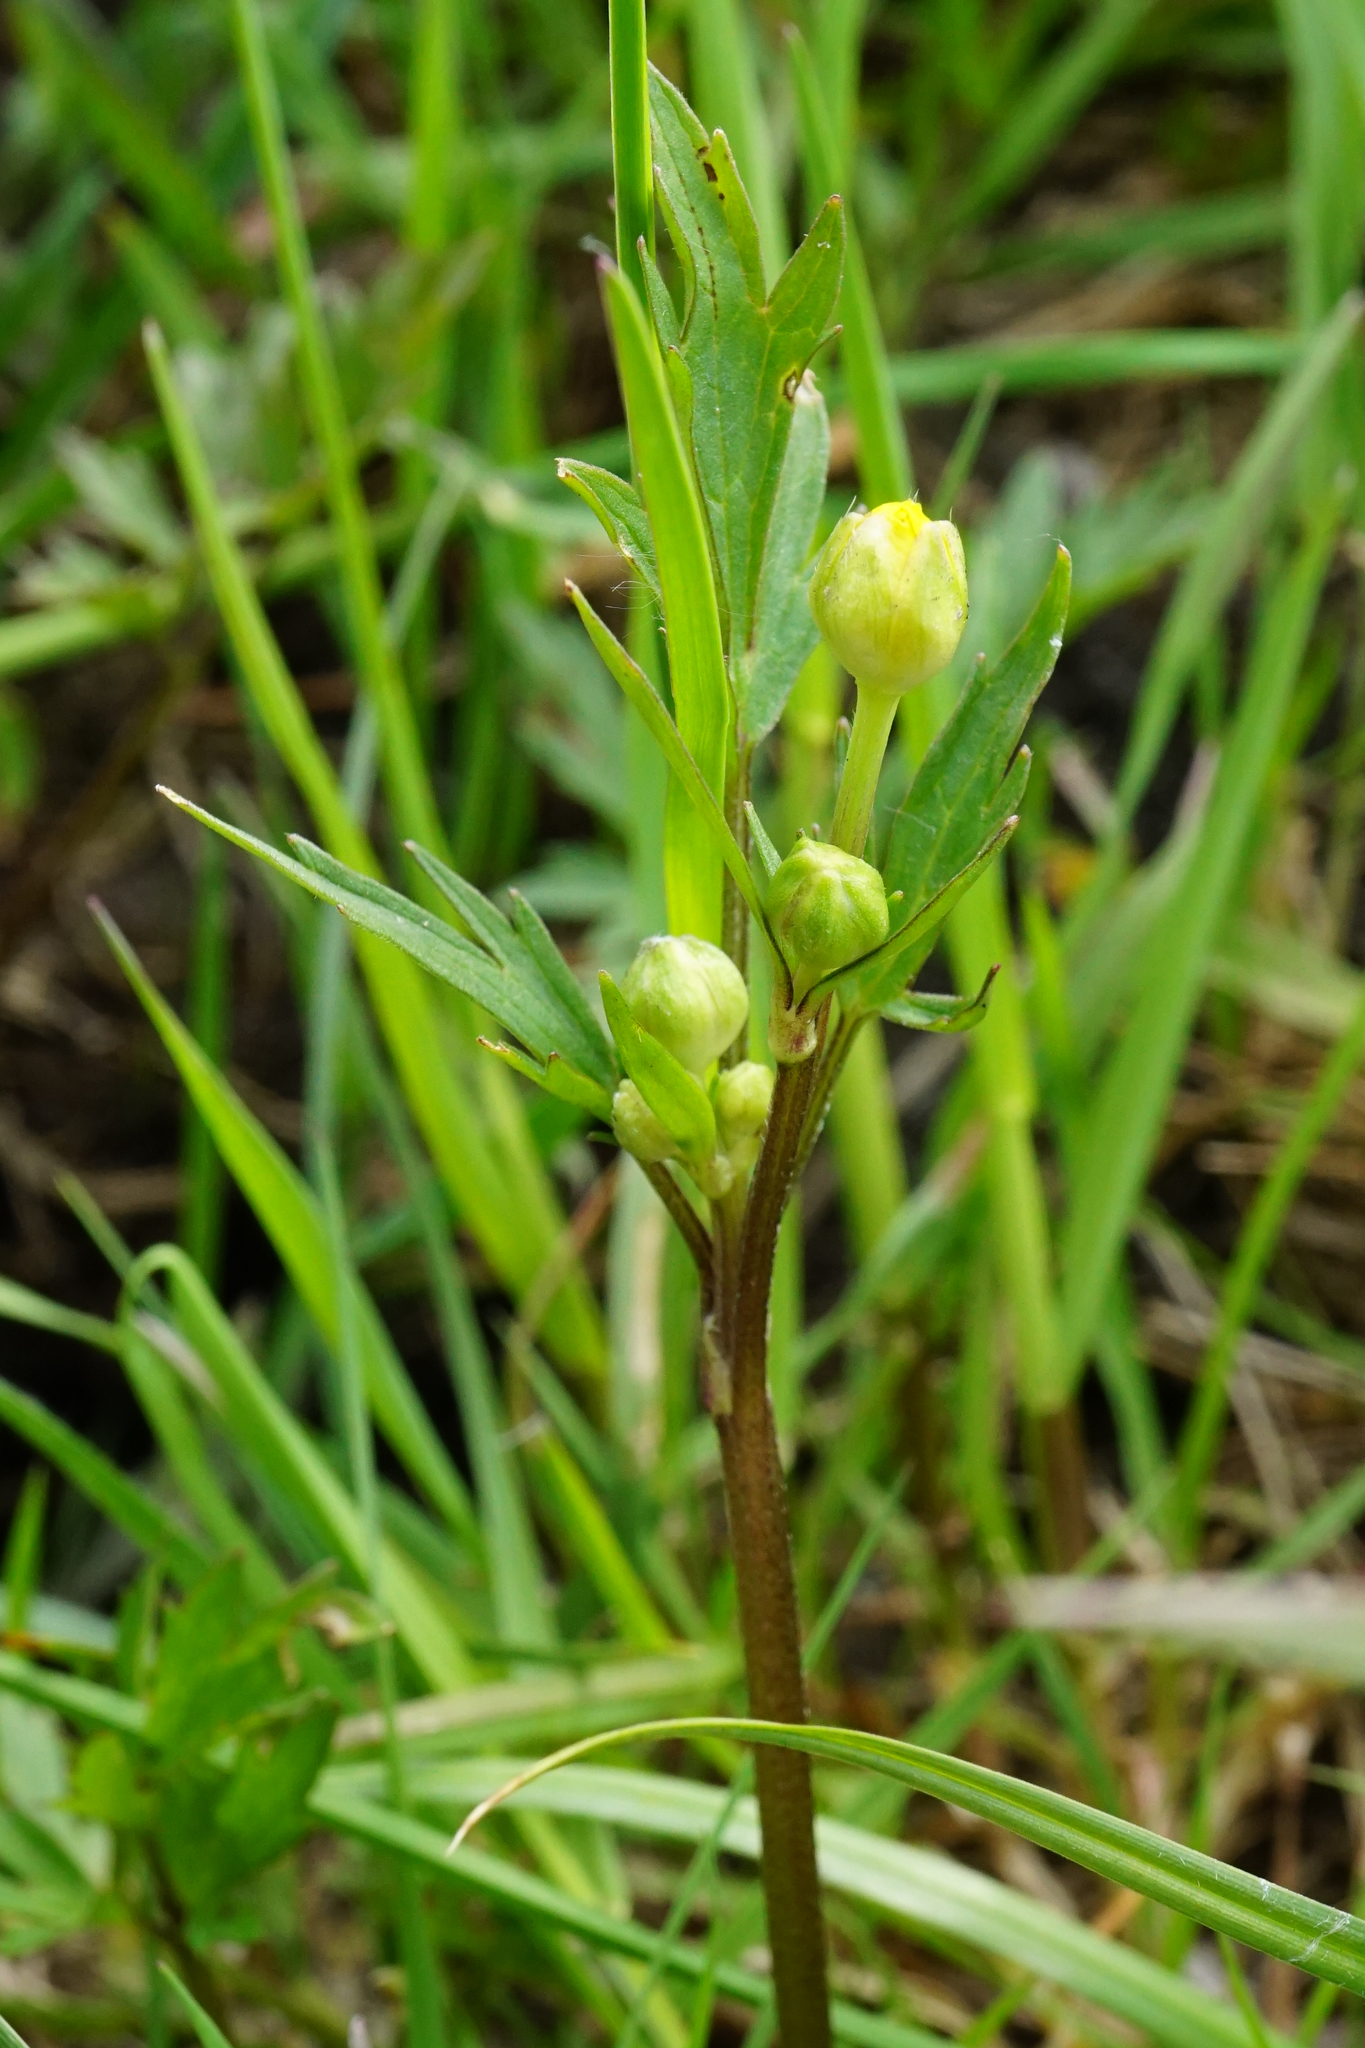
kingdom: Plantae
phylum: Tracheophyta
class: Magnoliopsida
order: Ranunculales
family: Ranunculaceae
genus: Ranunculus
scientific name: Ranunculus repens
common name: Creeping buttercup
